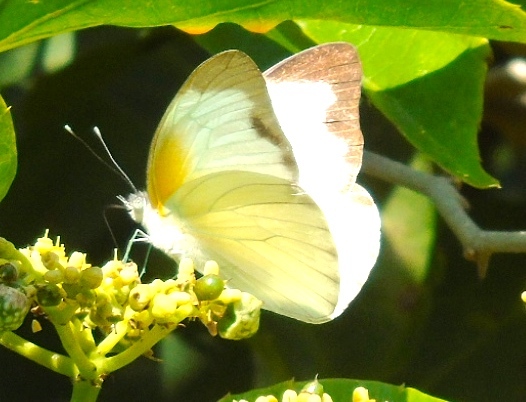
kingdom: Animalia
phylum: Arthropoda
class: Insecta
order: Lepidoptera
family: Pieridae
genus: Glutophrissa
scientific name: Glutophrissa drusilla
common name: Florida white
